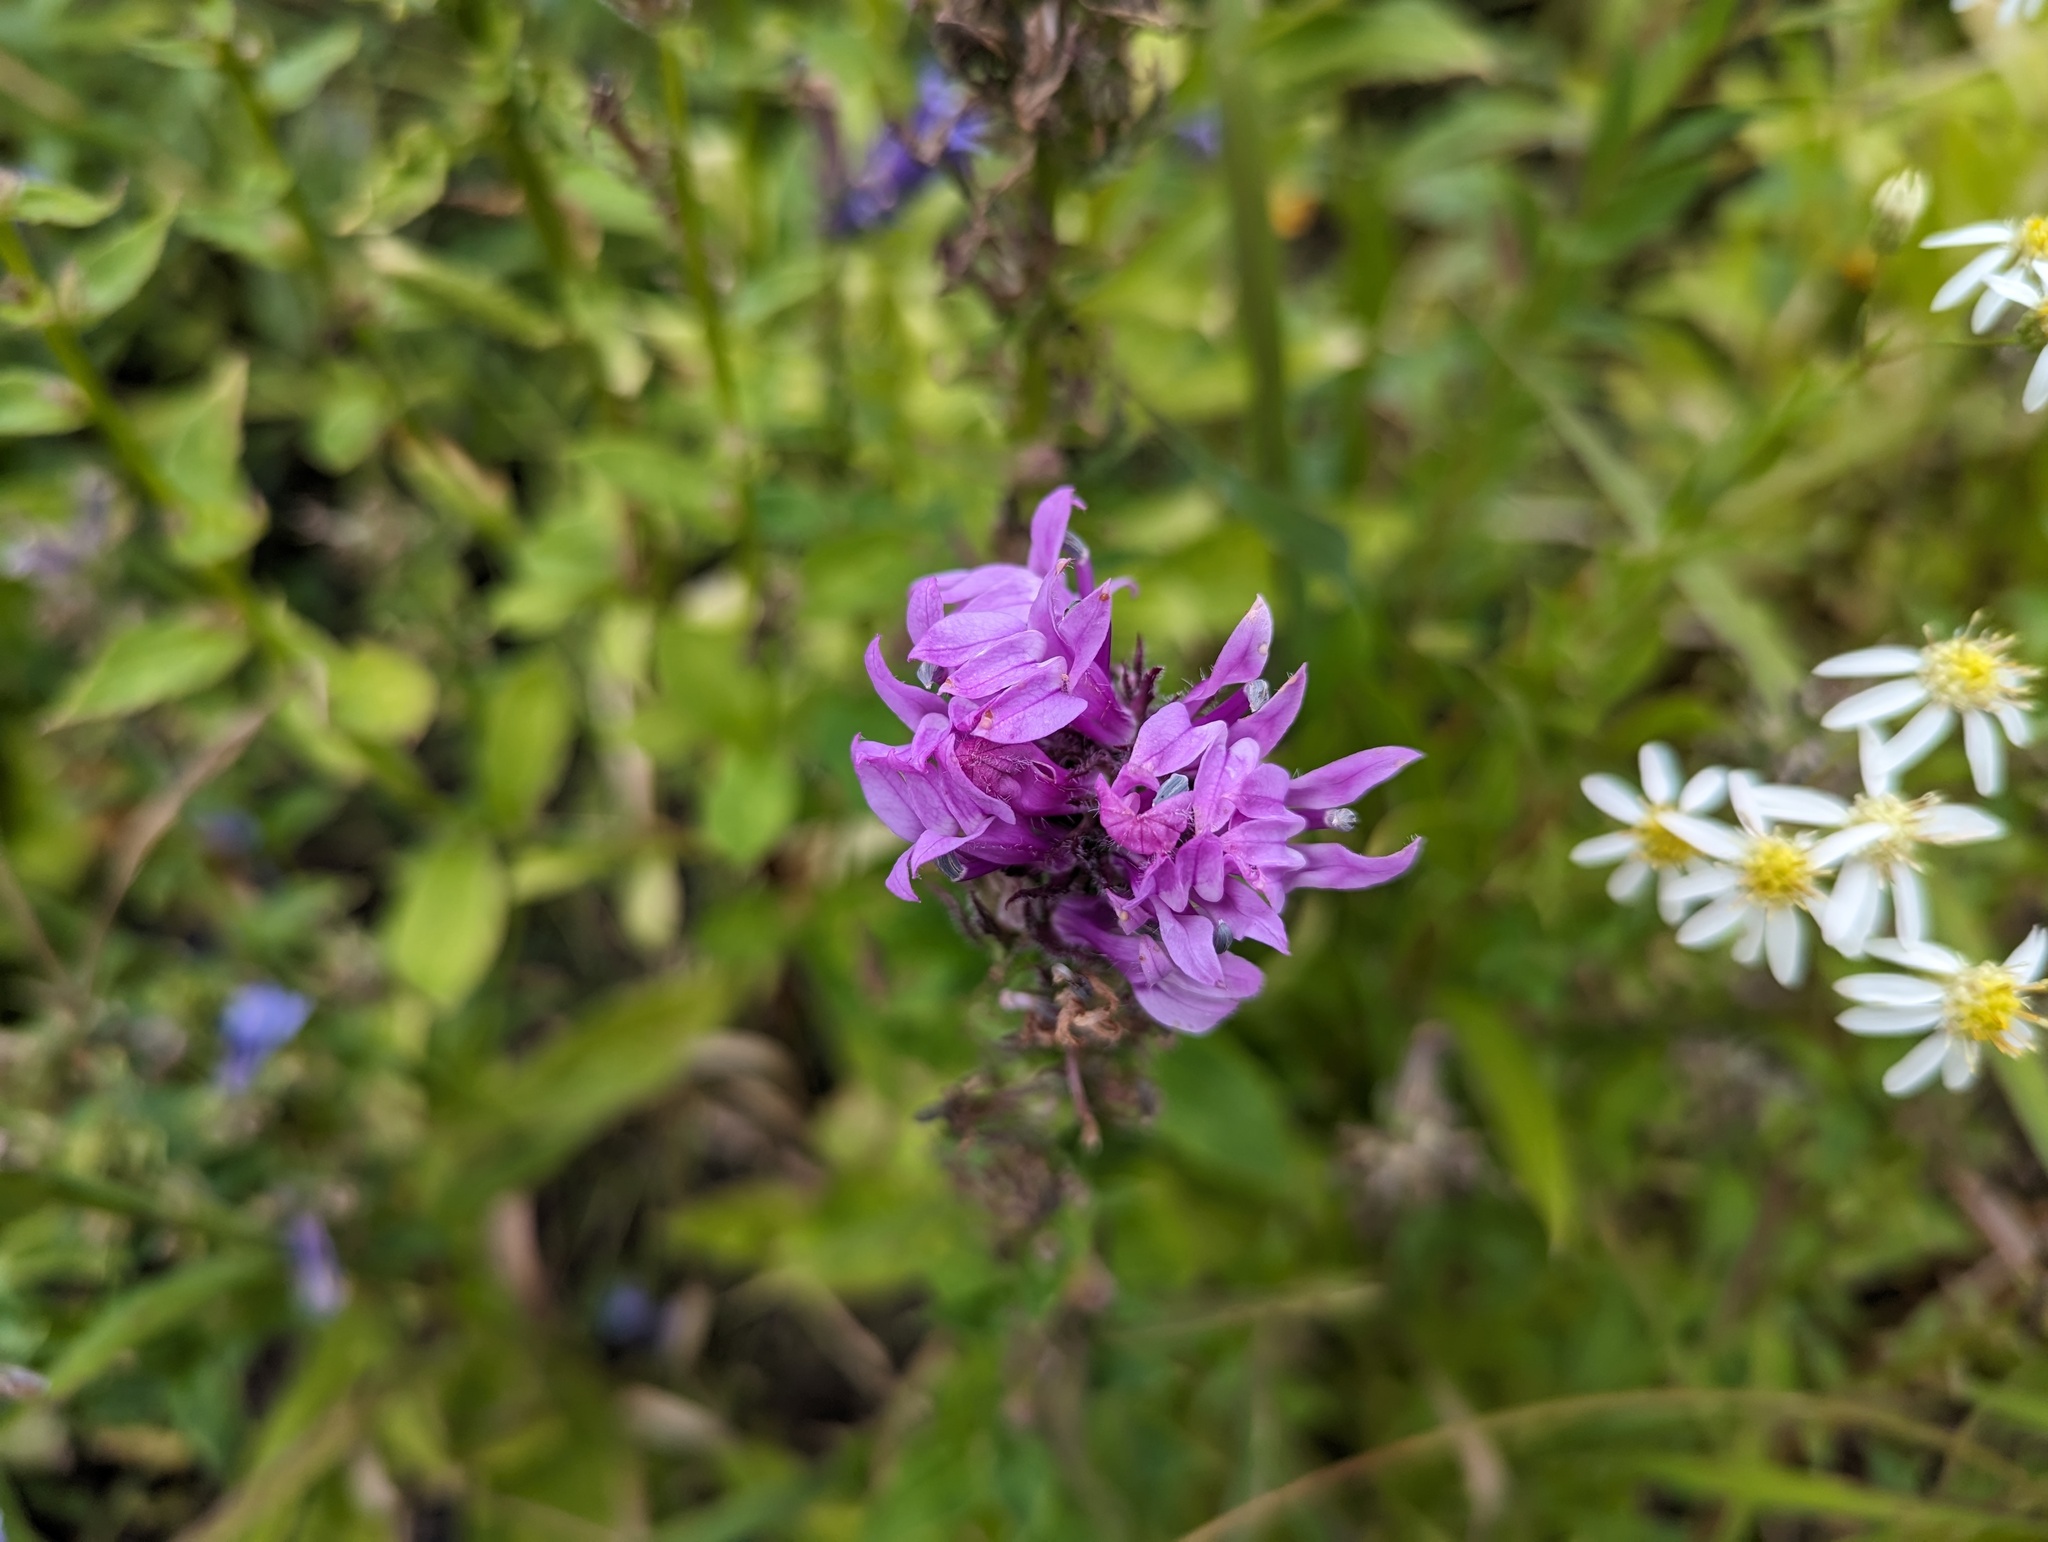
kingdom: Plantae
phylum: Tracheophyta
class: Magnoliopsida
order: Asterales
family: Campanulaceae
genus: Lobelia
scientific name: Lobelia siphilitica
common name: Great lobelia
